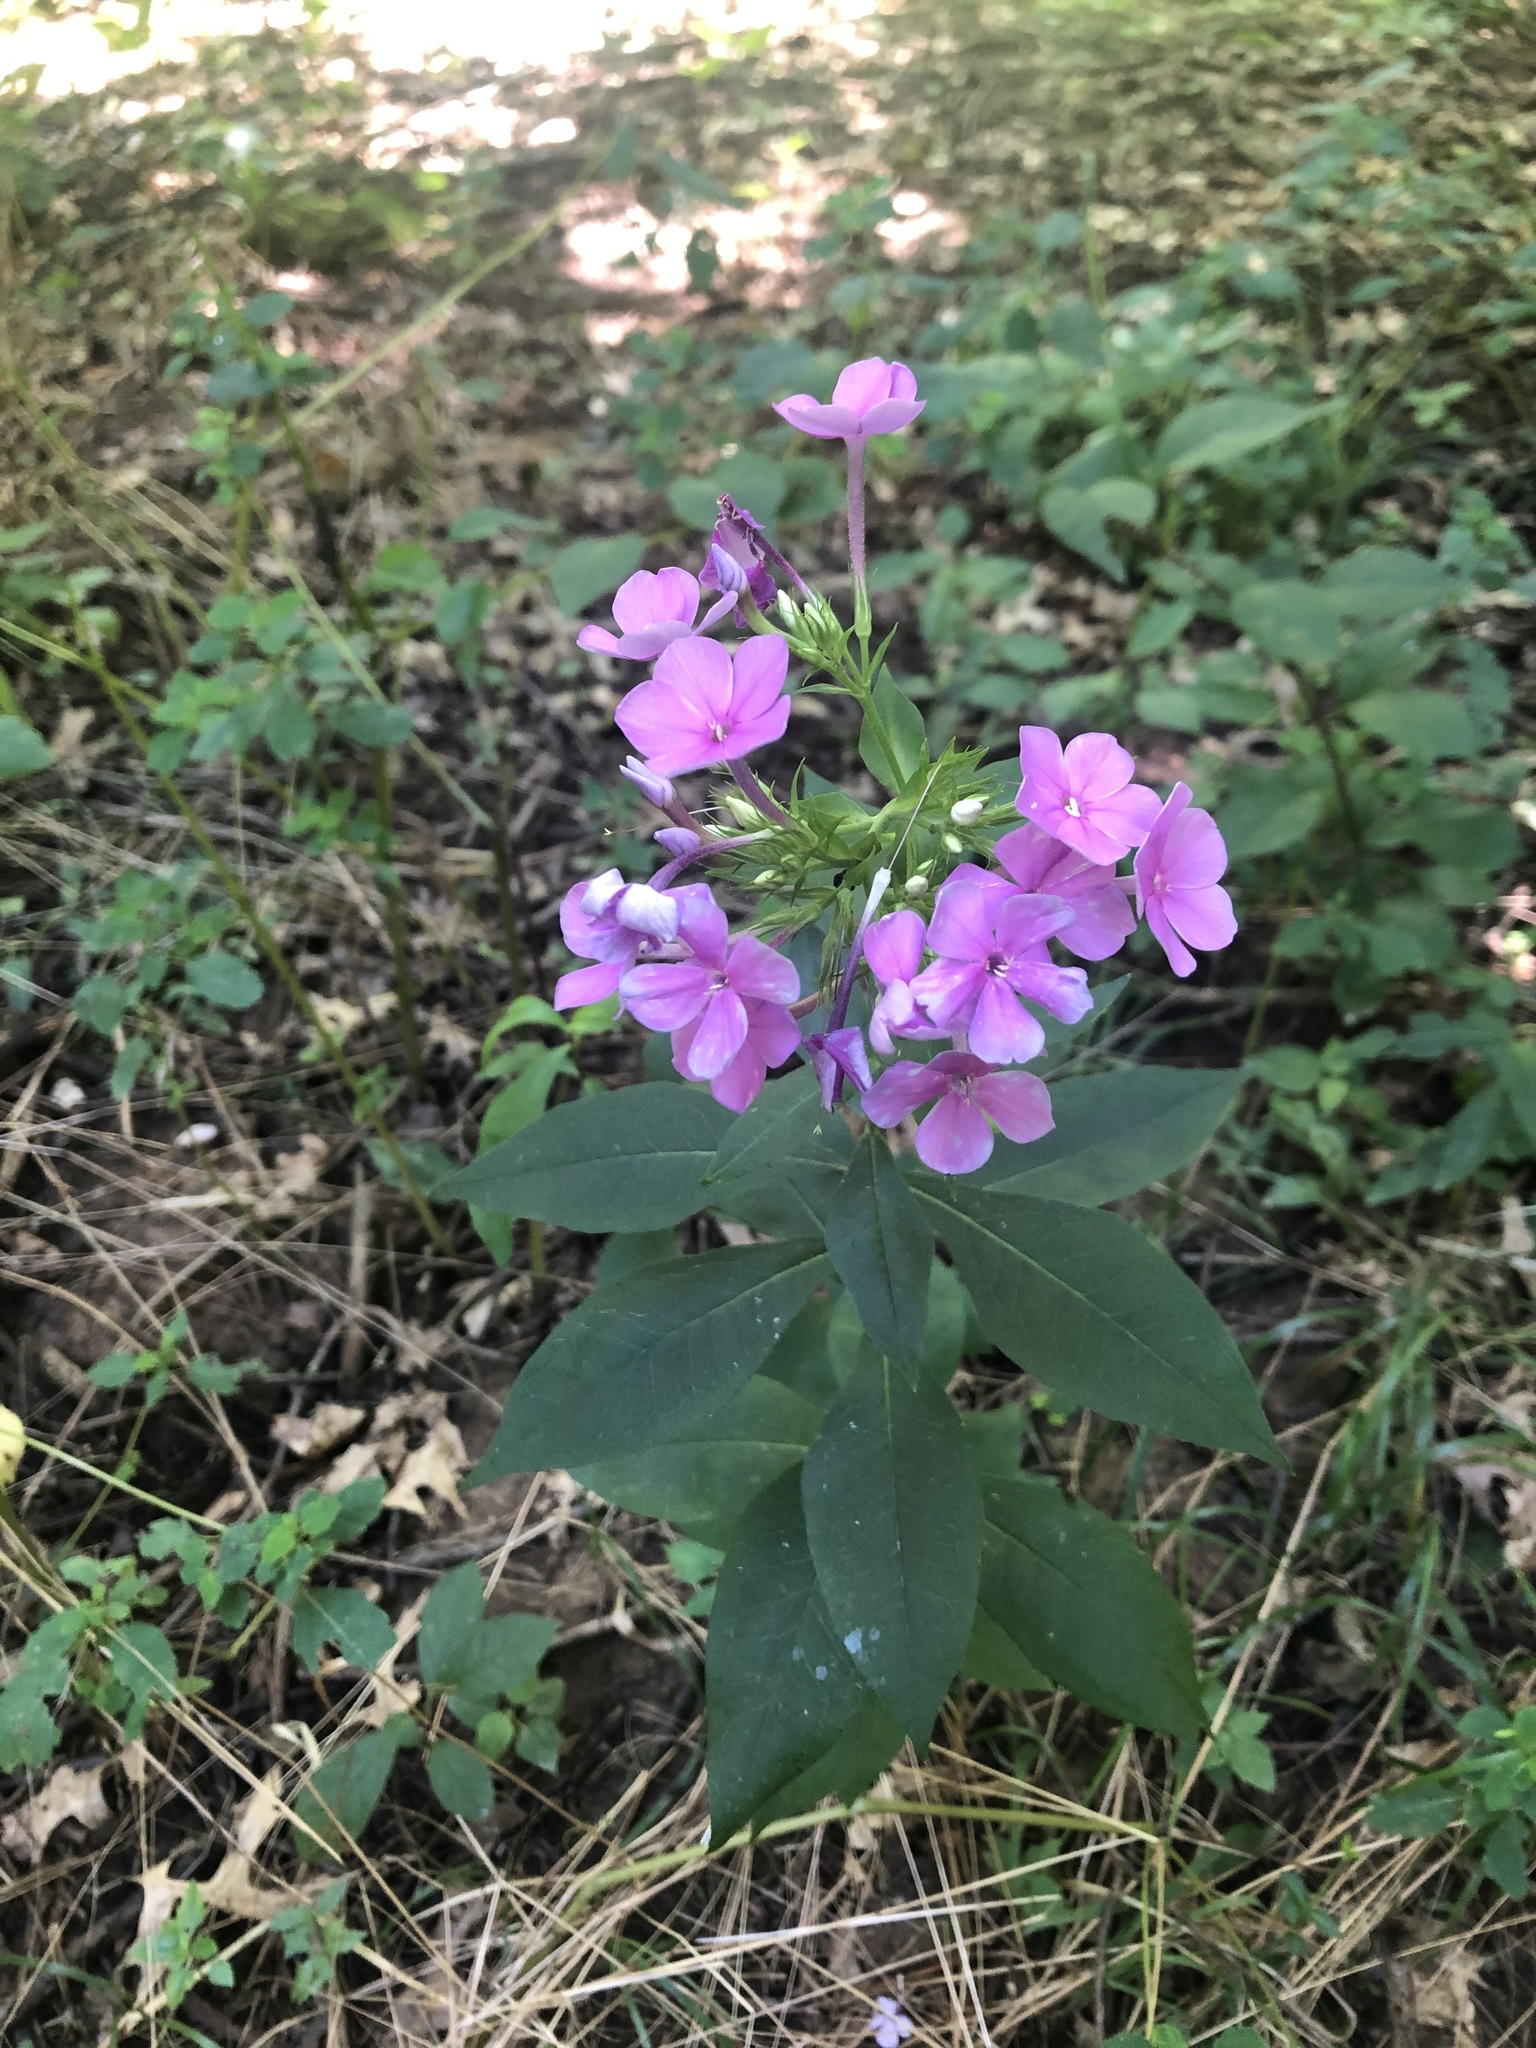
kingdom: Plantae
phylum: Tracheophyta
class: Magnoliopsida
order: Ericales
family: Polemoniaceae
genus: Phlox
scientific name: Phlox paniculata
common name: Fall phlox
